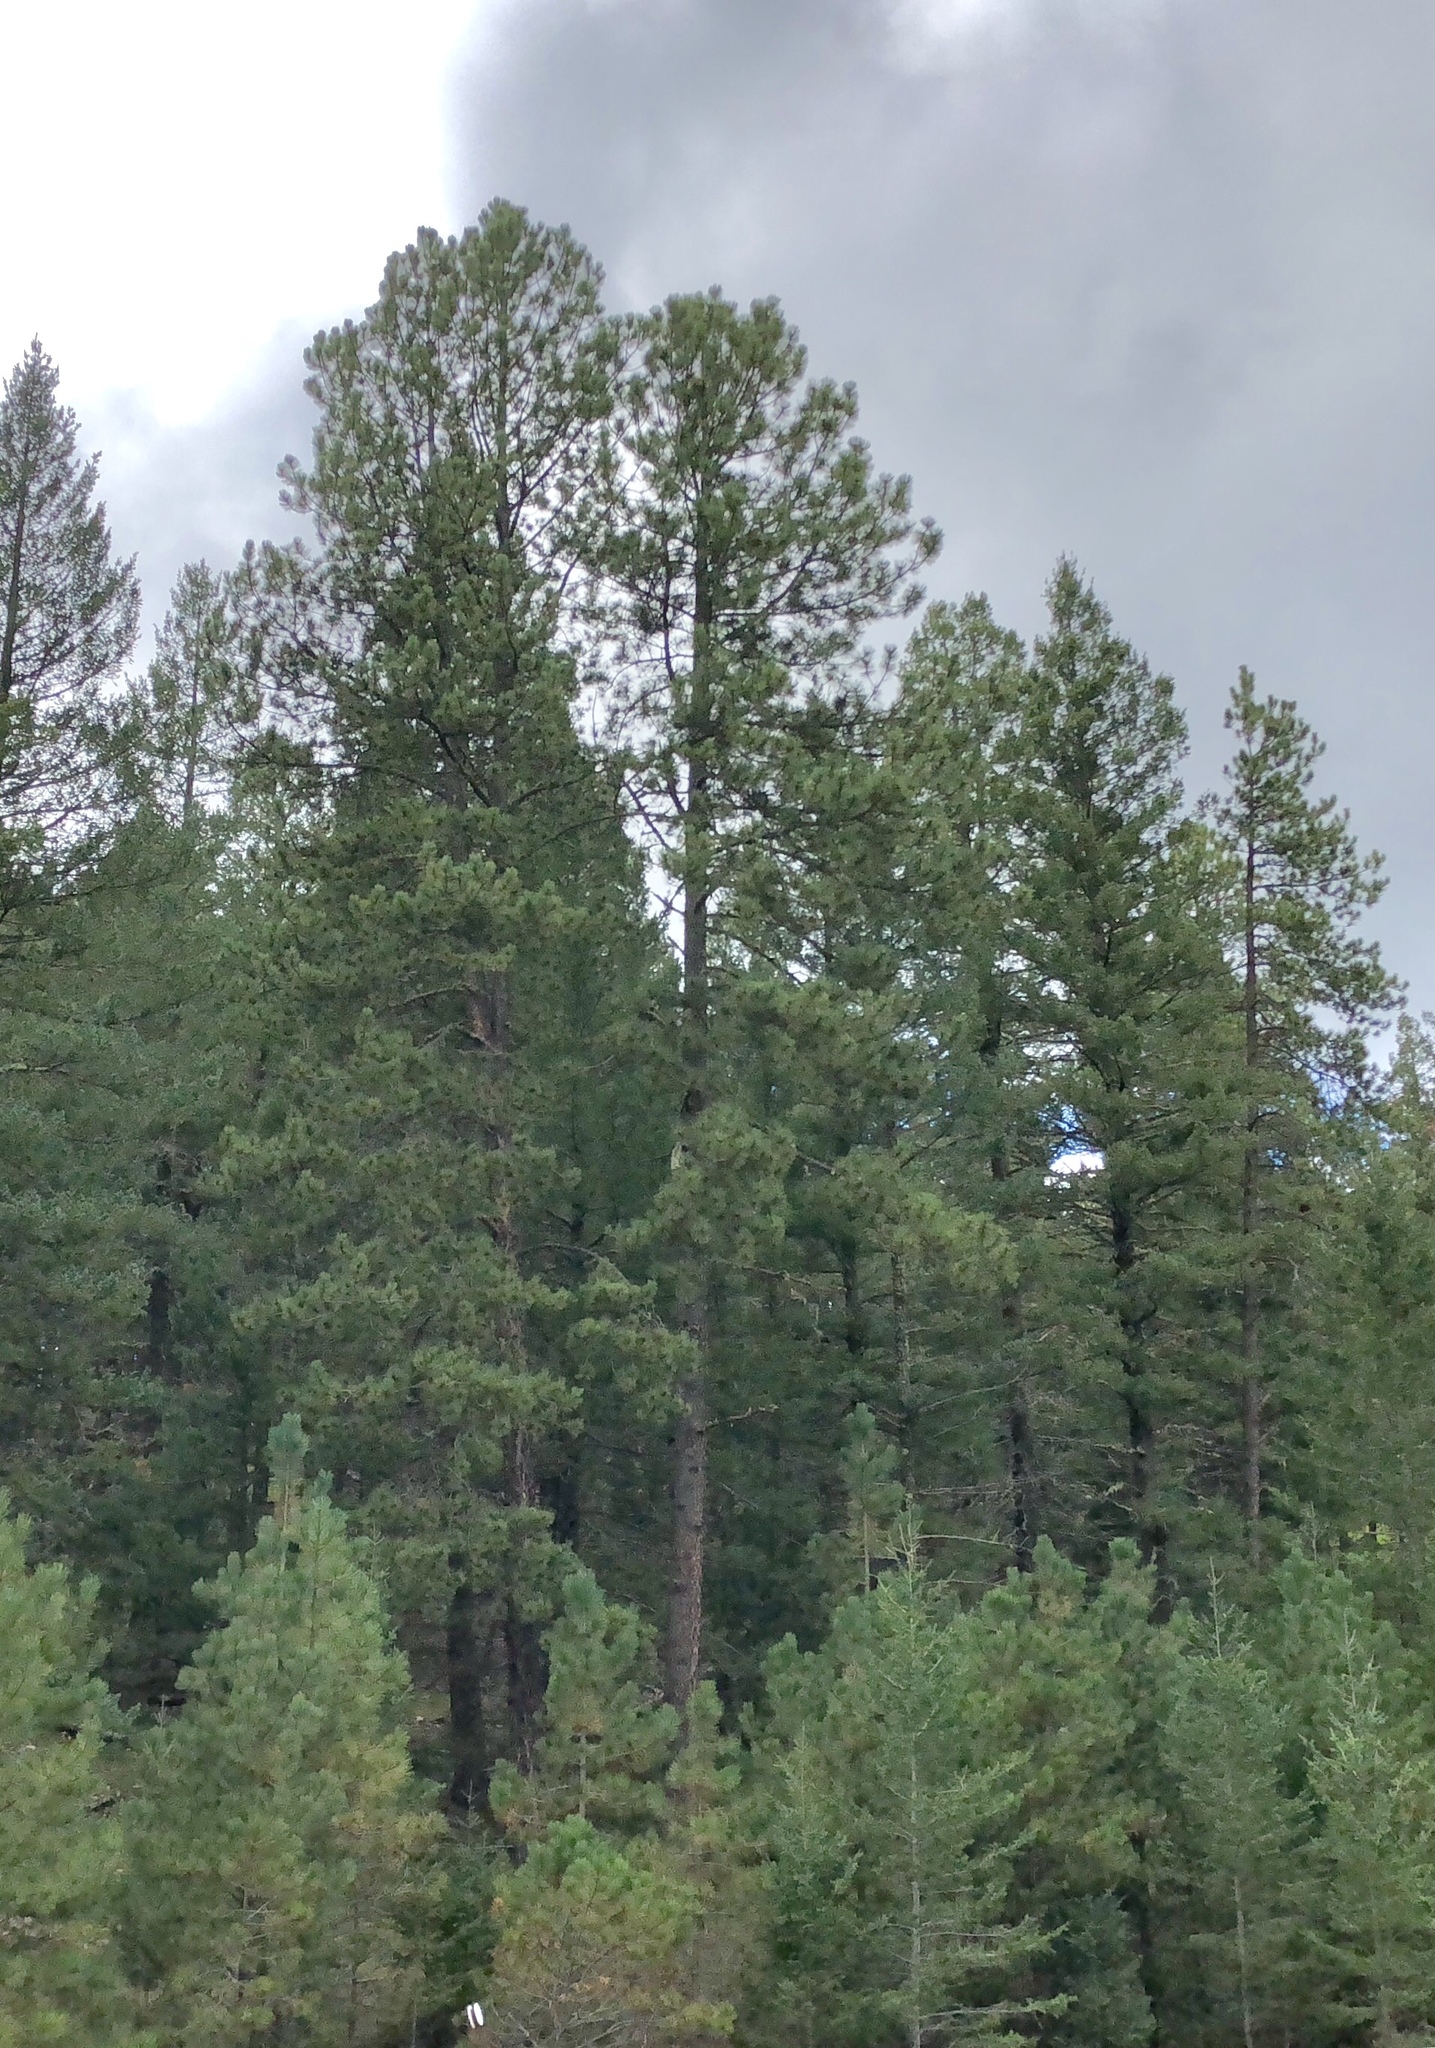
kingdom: Plantae
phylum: Tracheophyta
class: Pinopsida
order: Pinales
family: Pinaceae
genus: Pinus
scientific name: Pinus ponderosa
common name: Western yellow-pine
